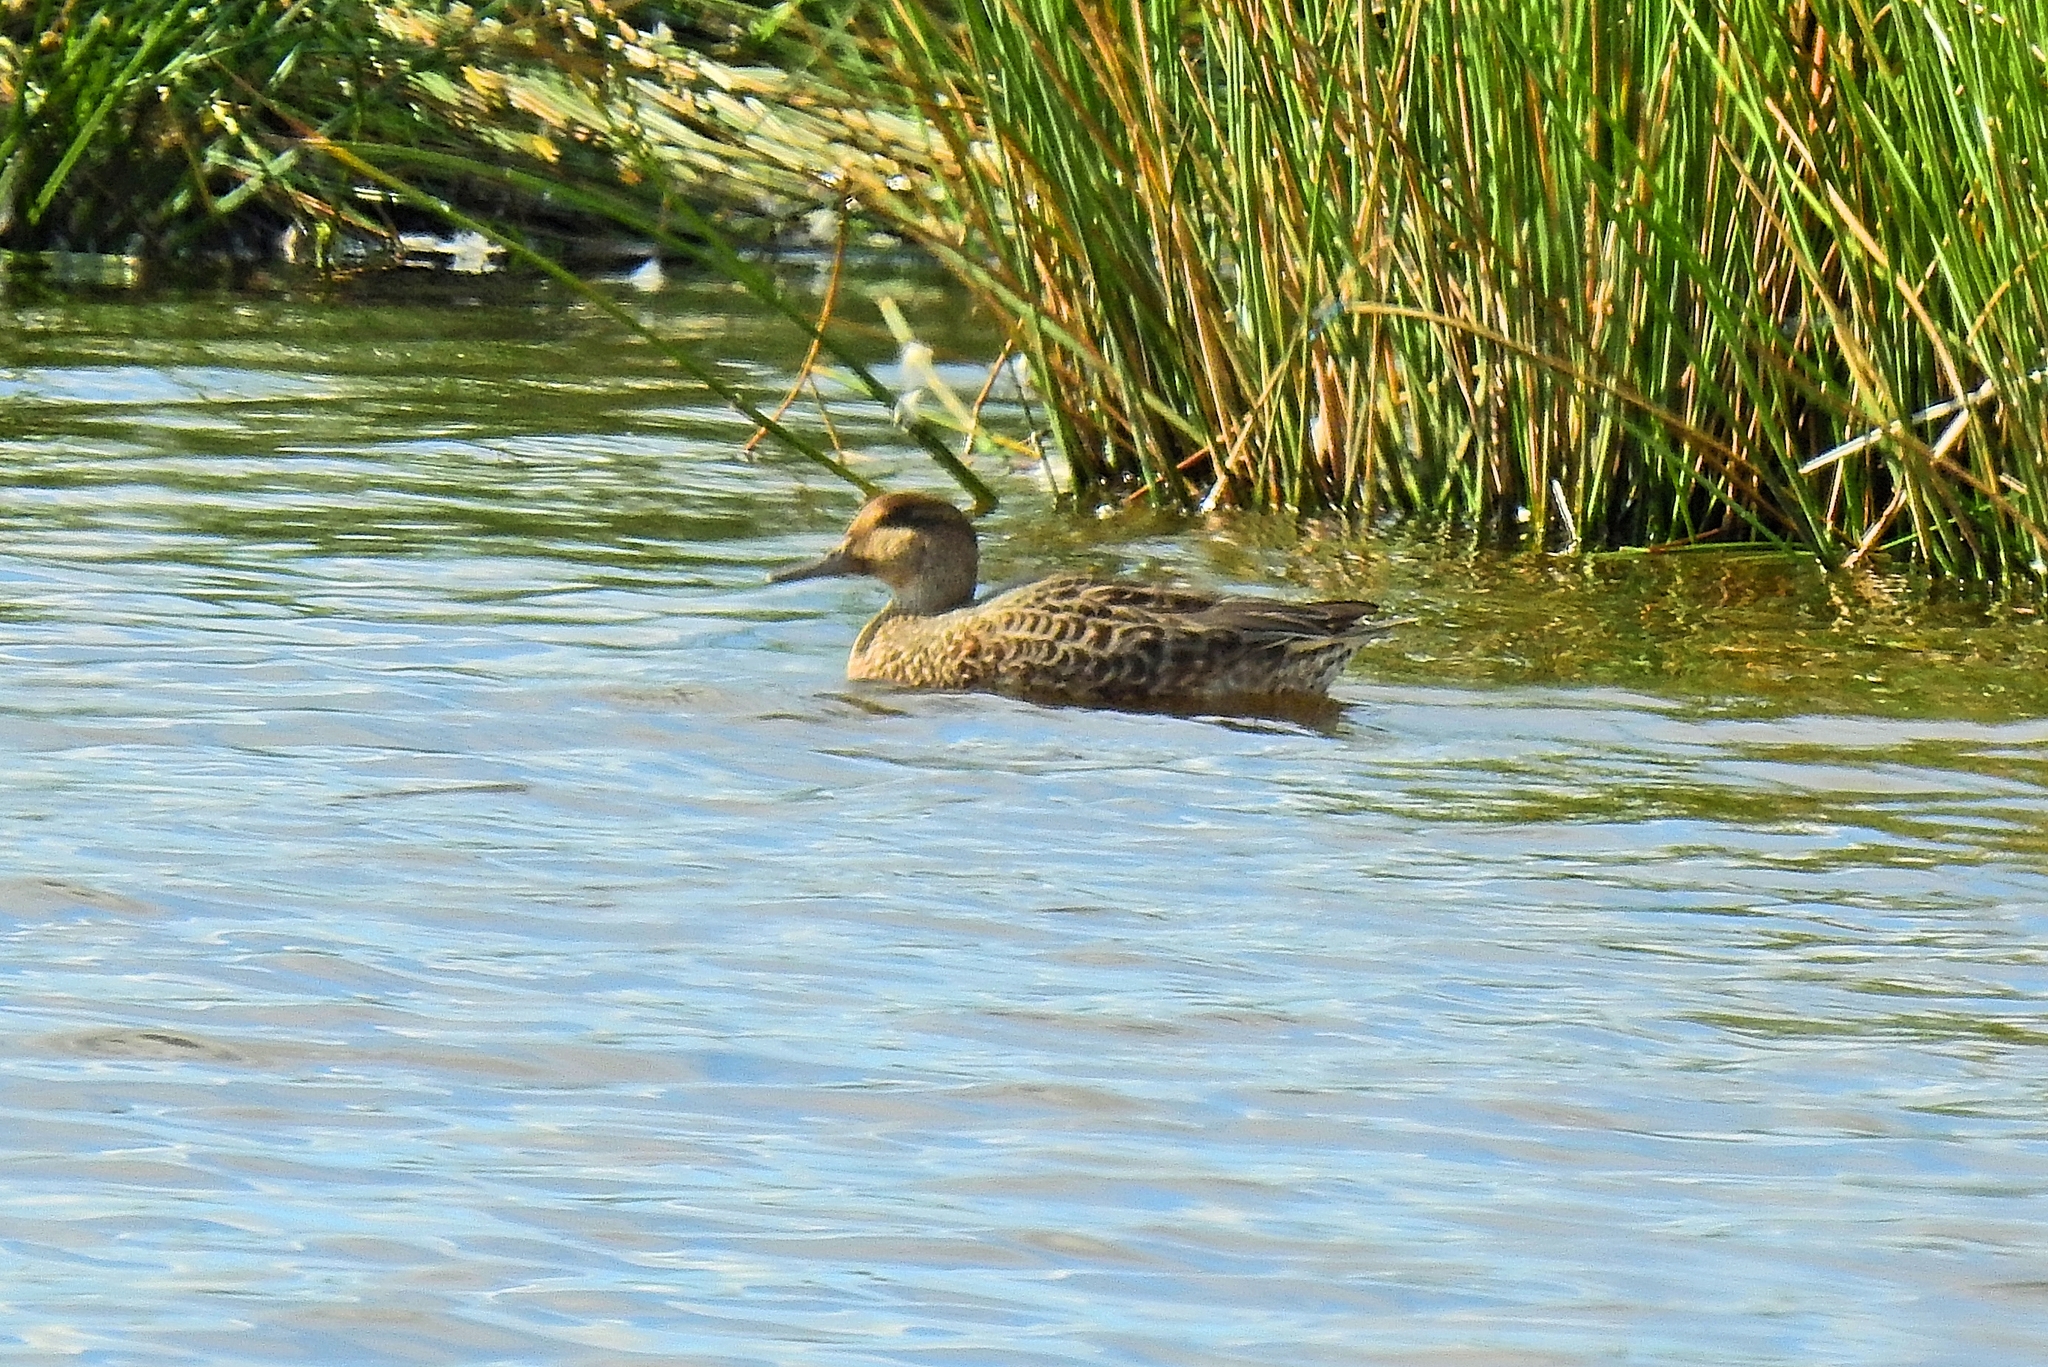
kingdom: Animalia
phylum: Chordata
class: Aves
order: Anseriformes
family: Anatidae
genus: Anas
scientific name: Anas crecca
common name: Eurasian teal
